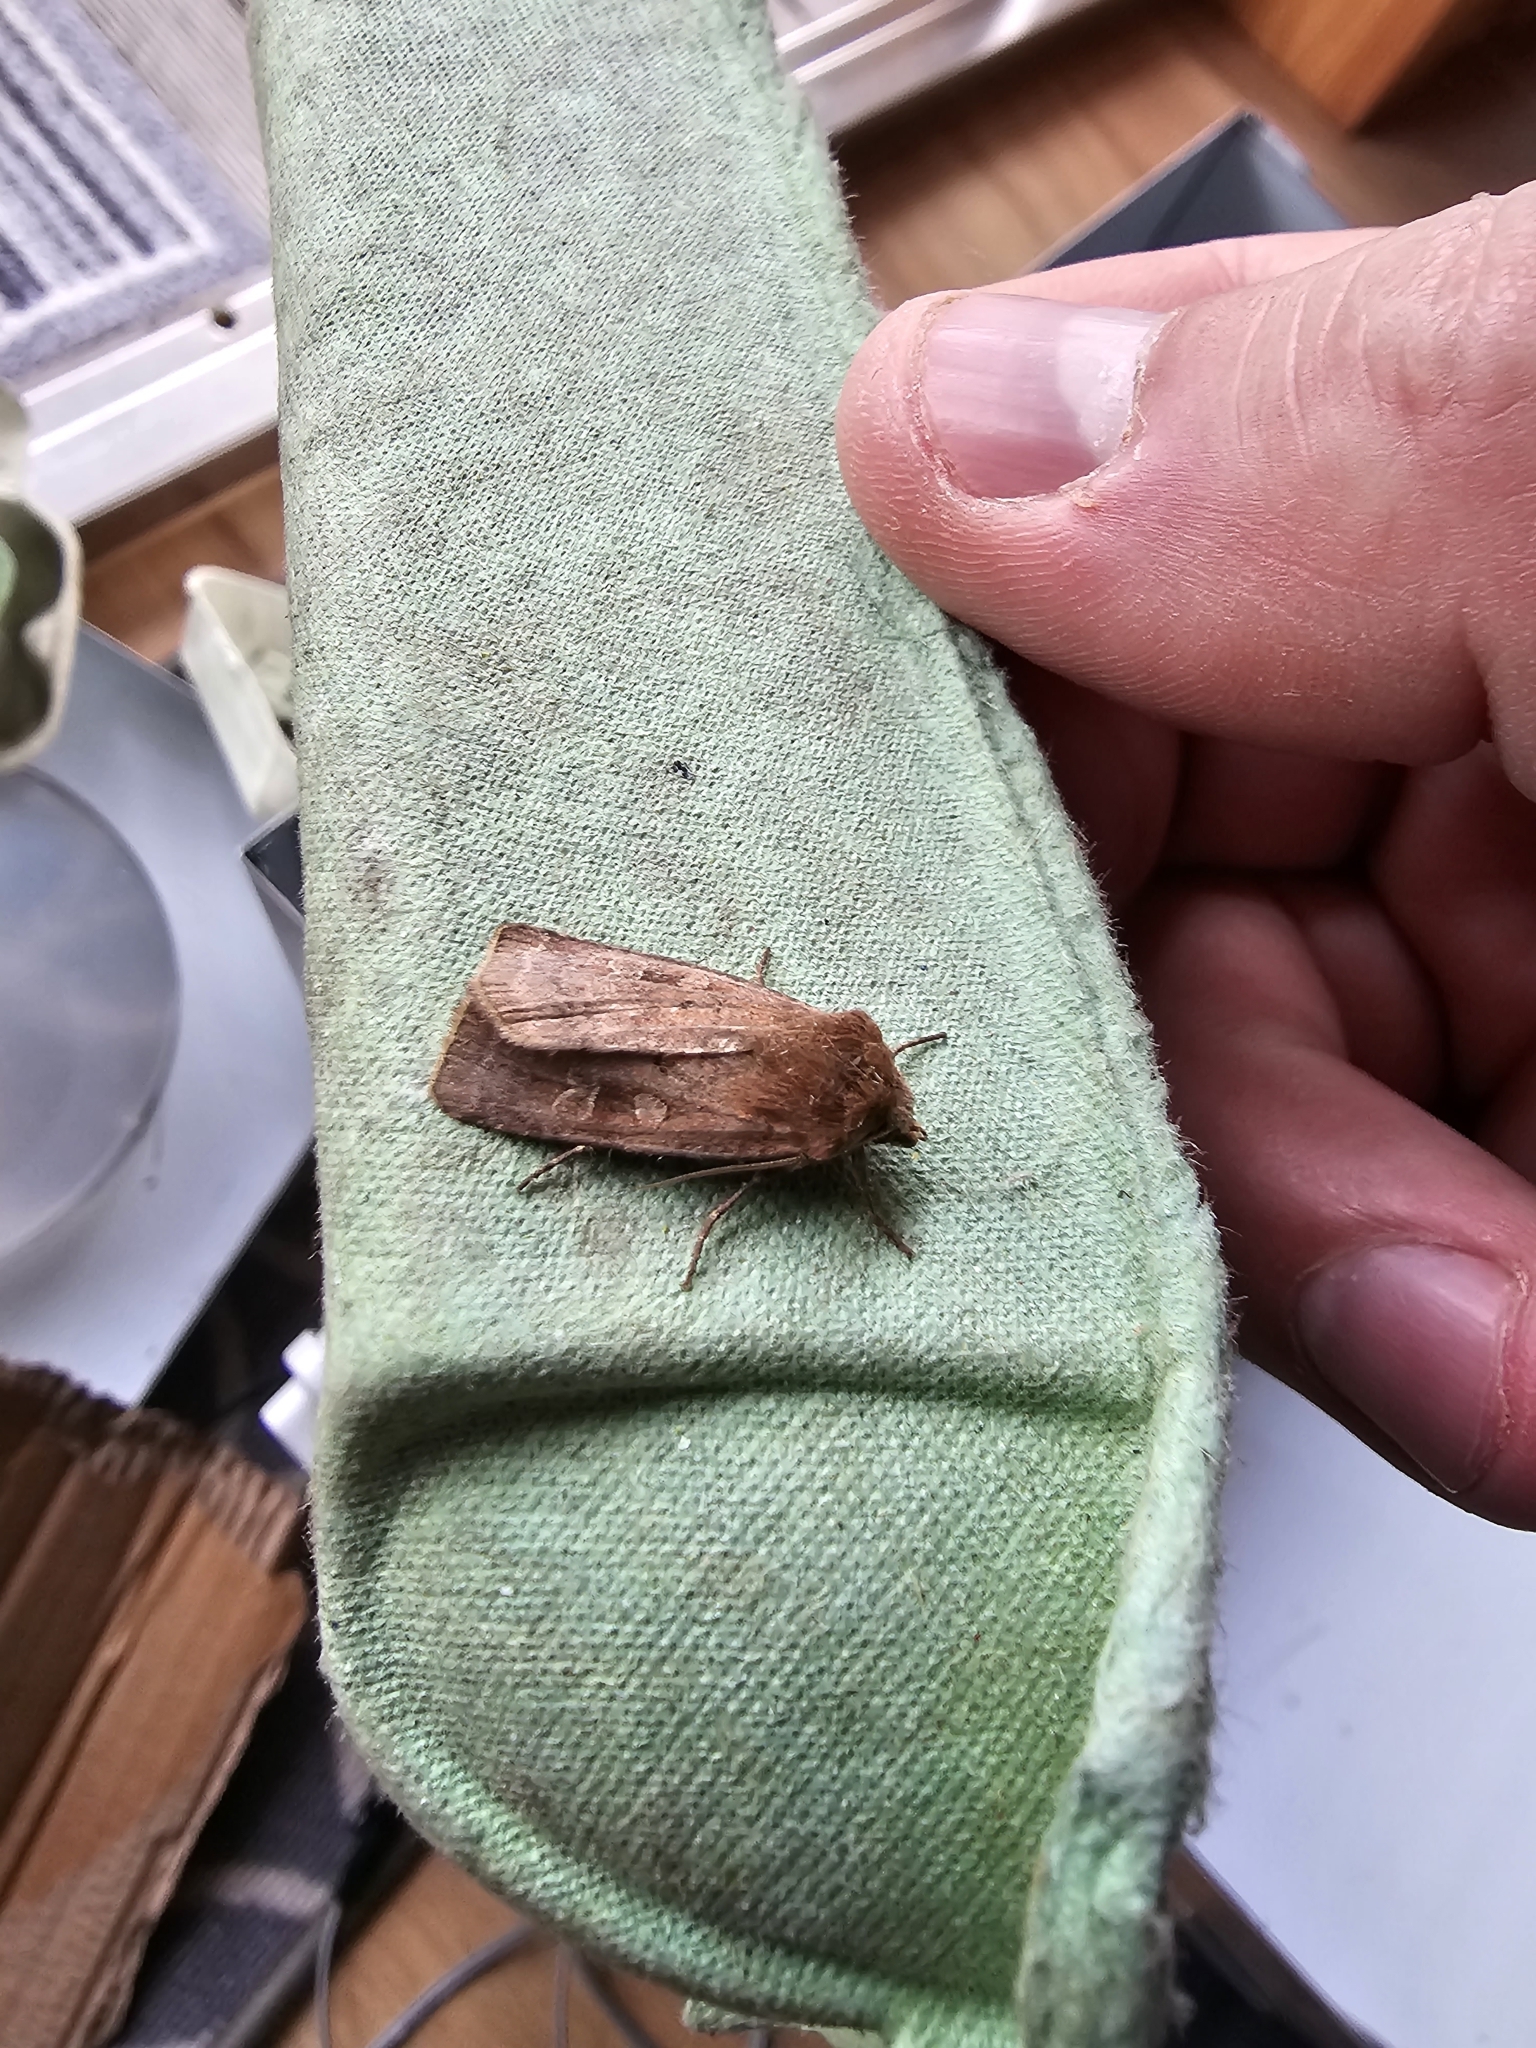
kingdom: Animalia
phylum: Arthropoda
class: Insecta
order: Lepidoptera
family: Noctuidae
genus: Diarsia
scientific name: Diarsia rubi
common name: Small square-spot
